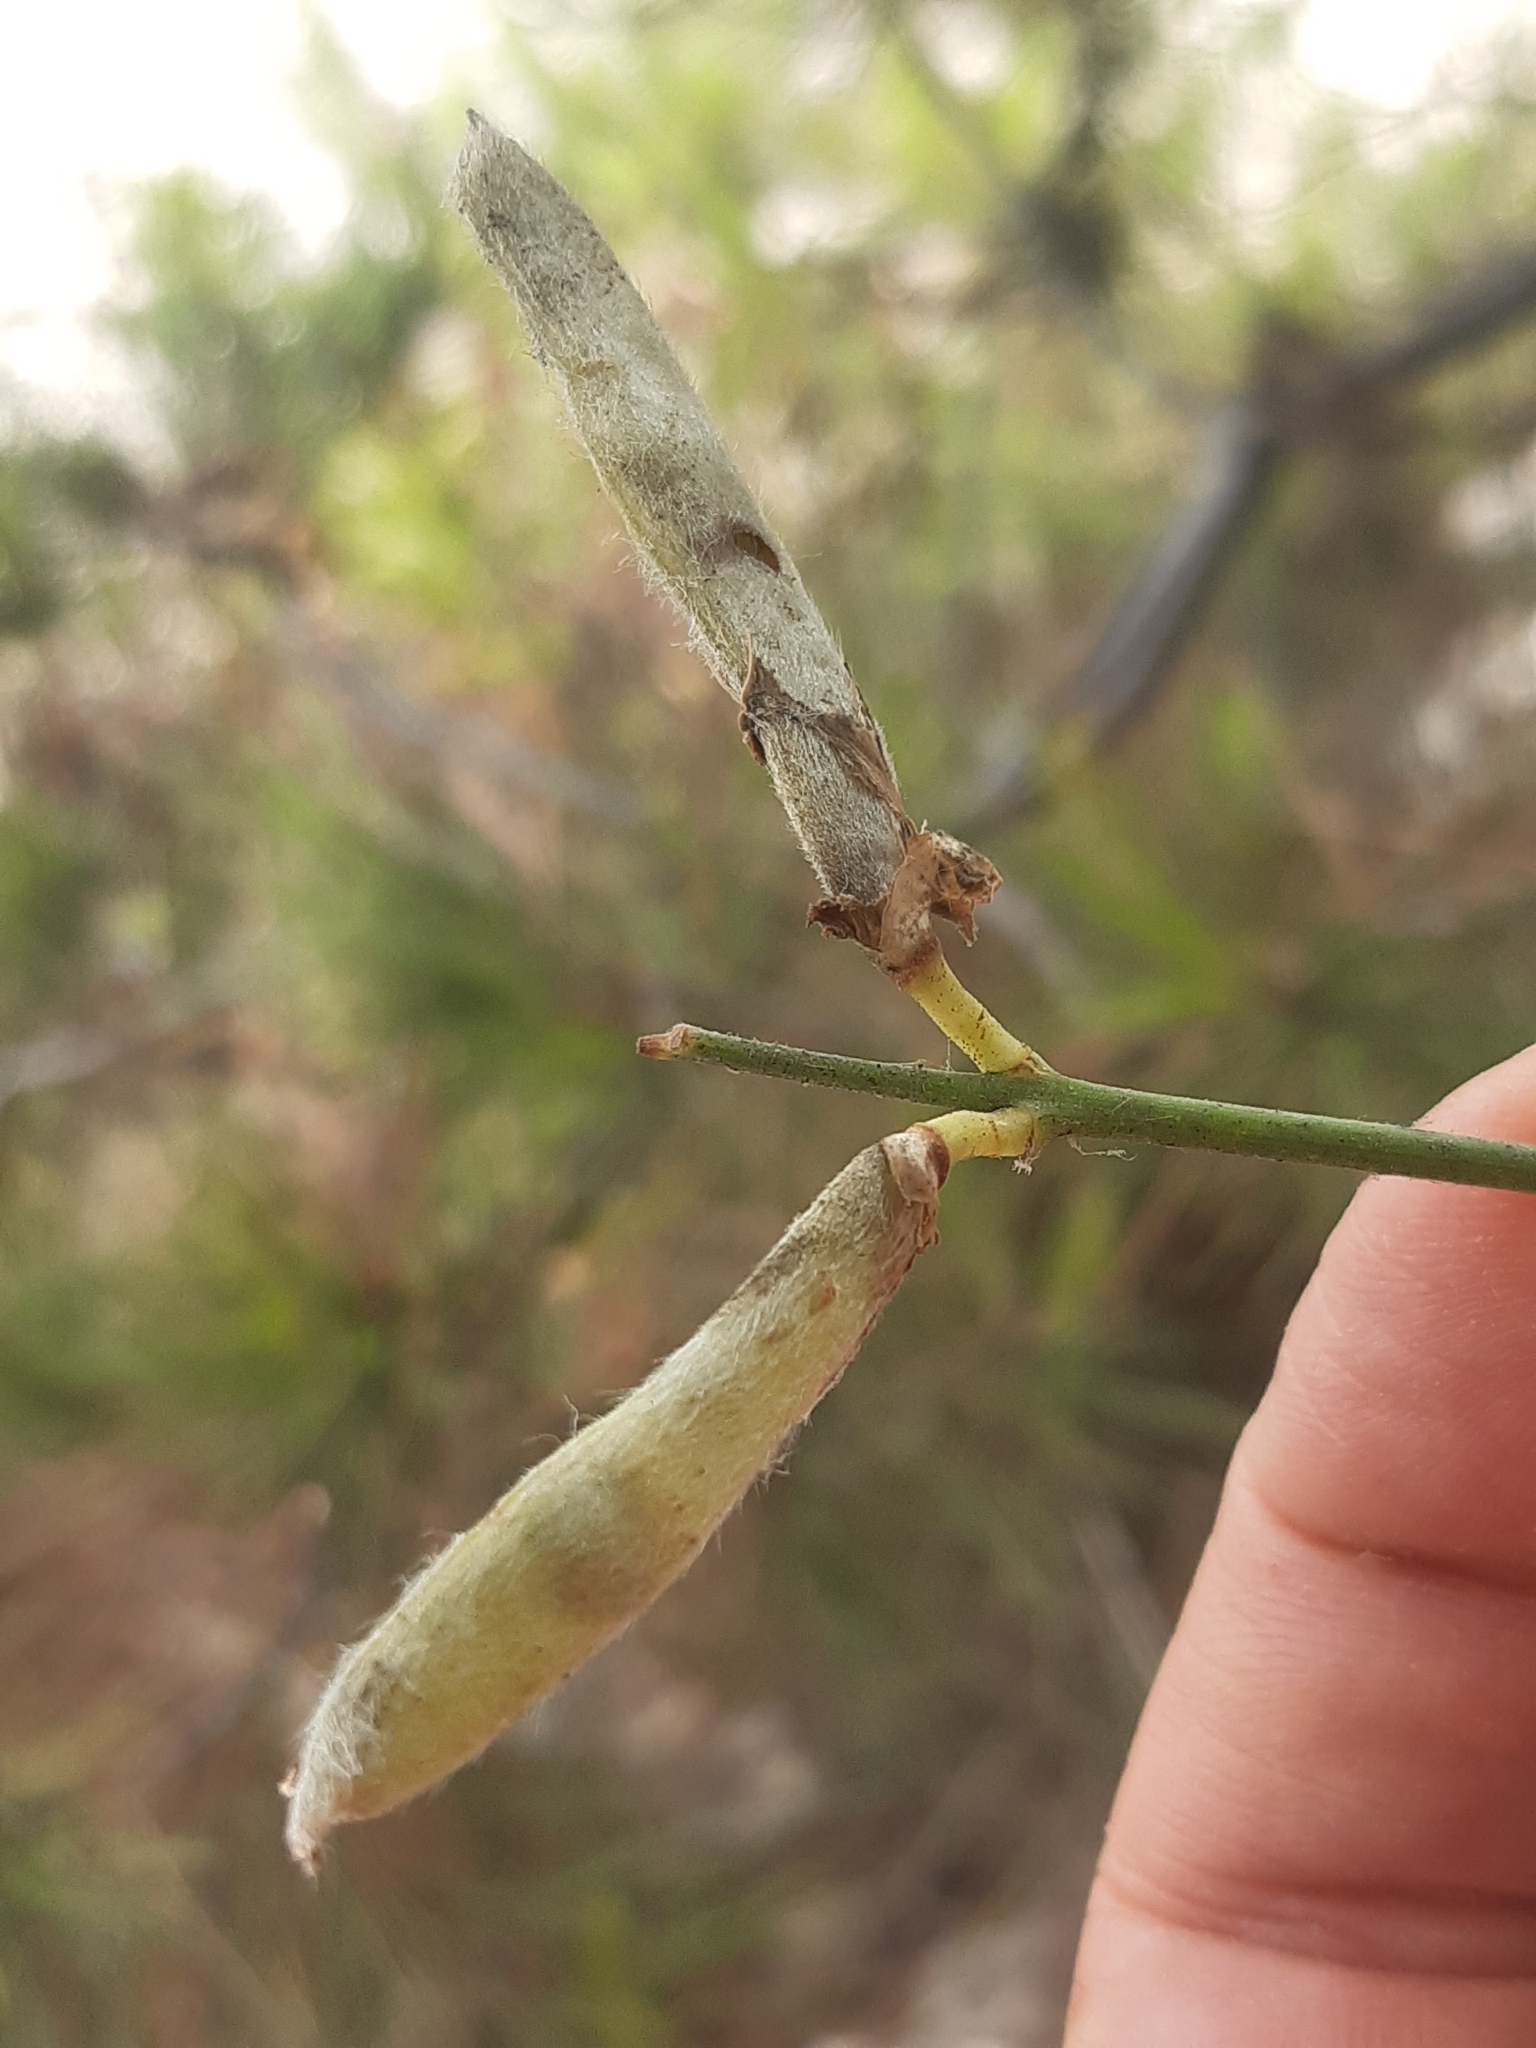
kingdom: Plantae
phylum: Tracheophyta
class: Magnoliopsida
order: Fabales
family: Fabaceae
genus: Spartium
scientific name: Spartium junceum
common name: Spanish broom
